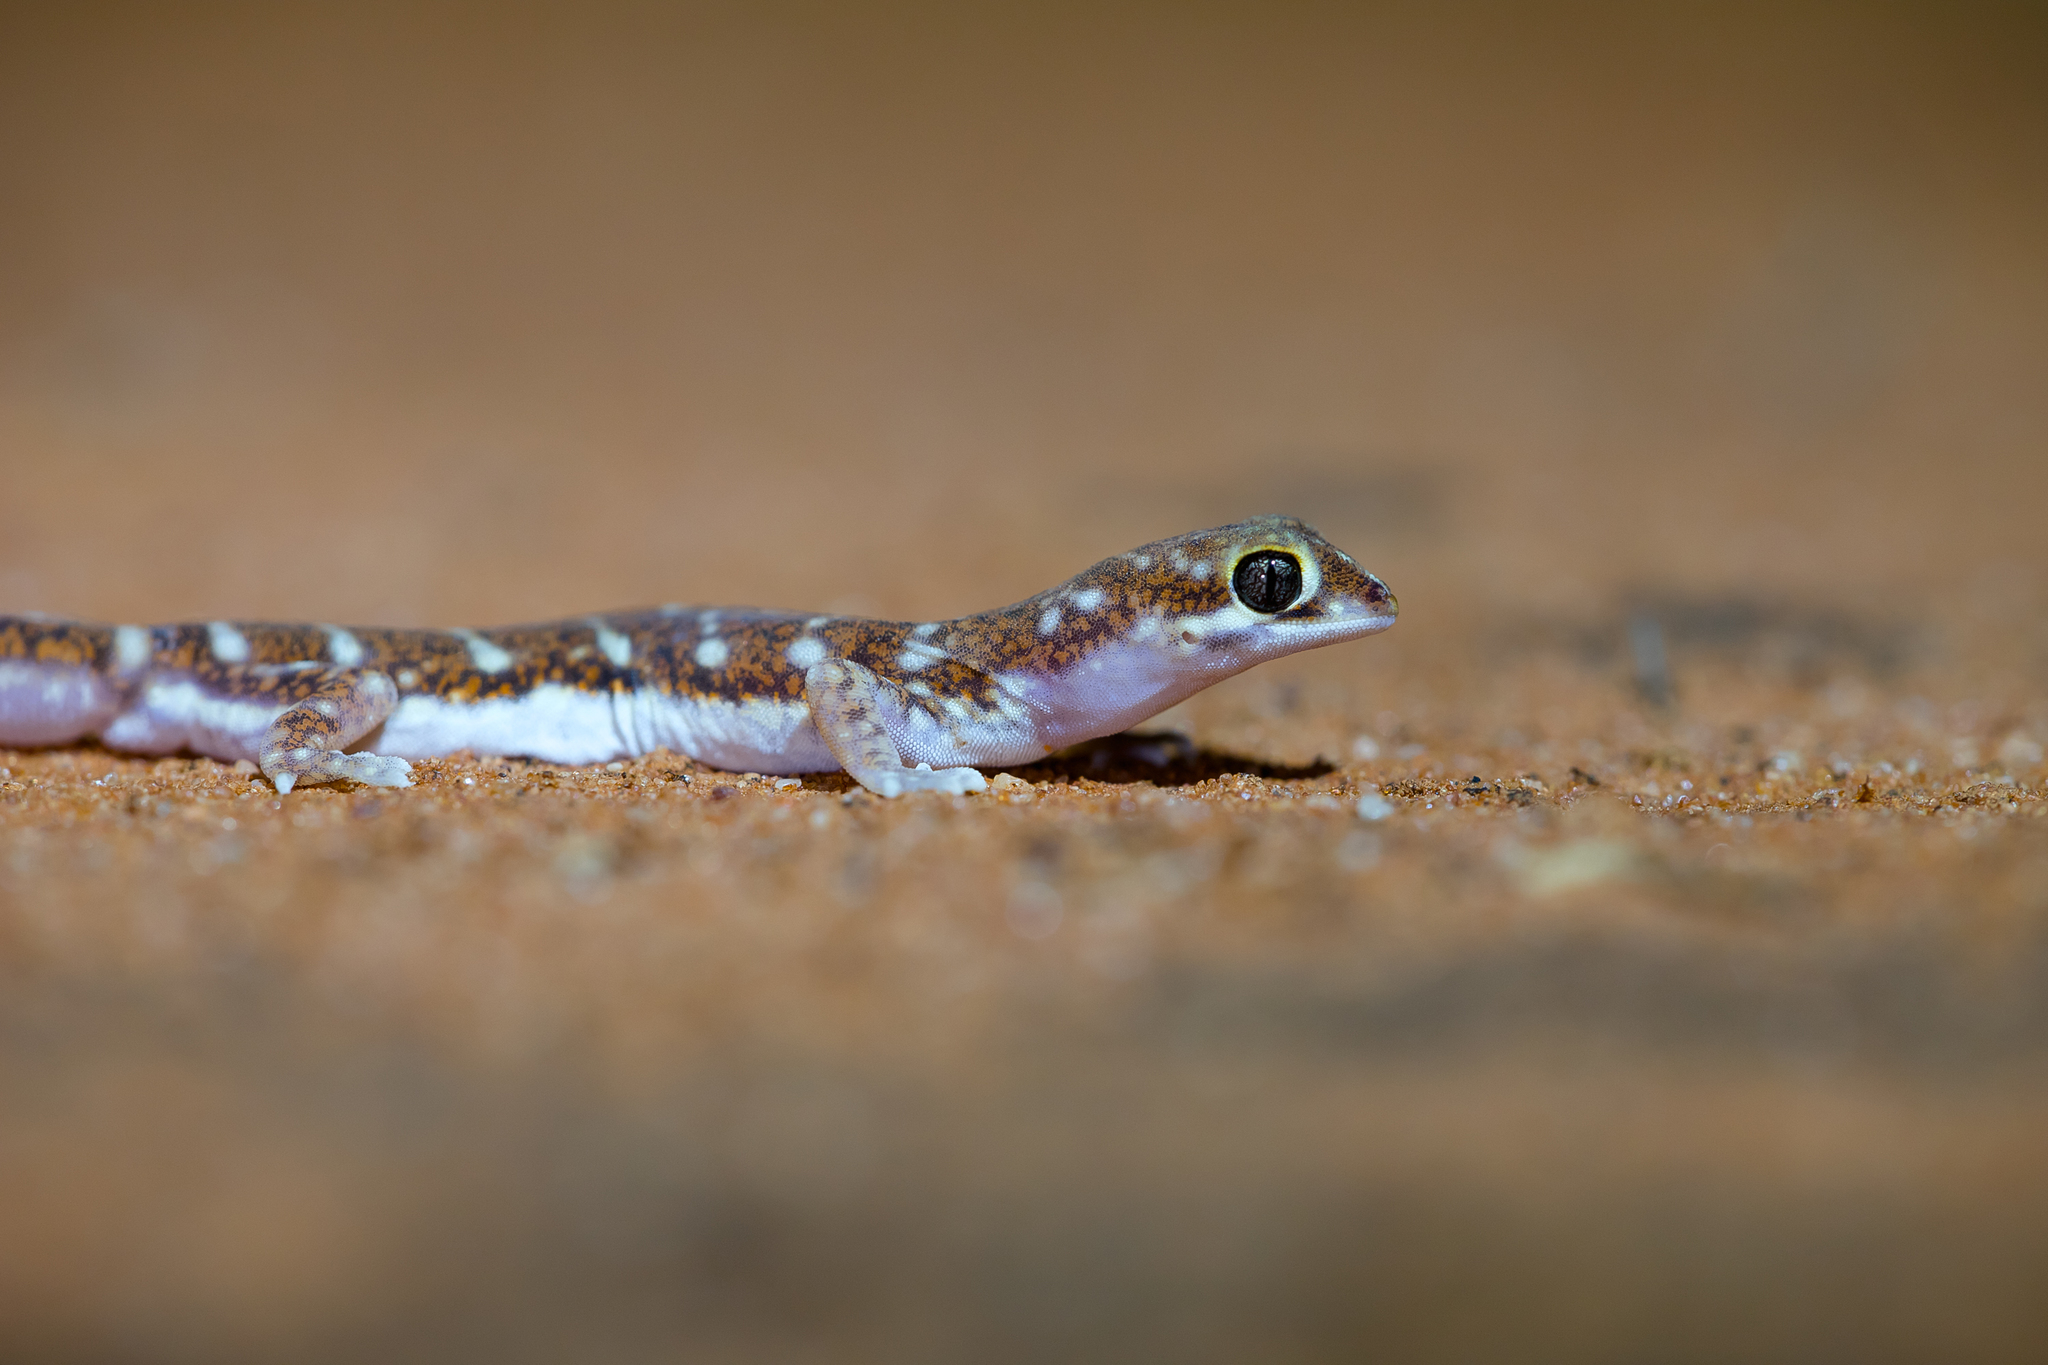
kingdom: Animalia
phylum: Chordata
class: Squamata
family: Diplodactylidae
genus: Rhynchoedura
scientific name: Rhynchoedura angusta
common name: Border beaked gecko
